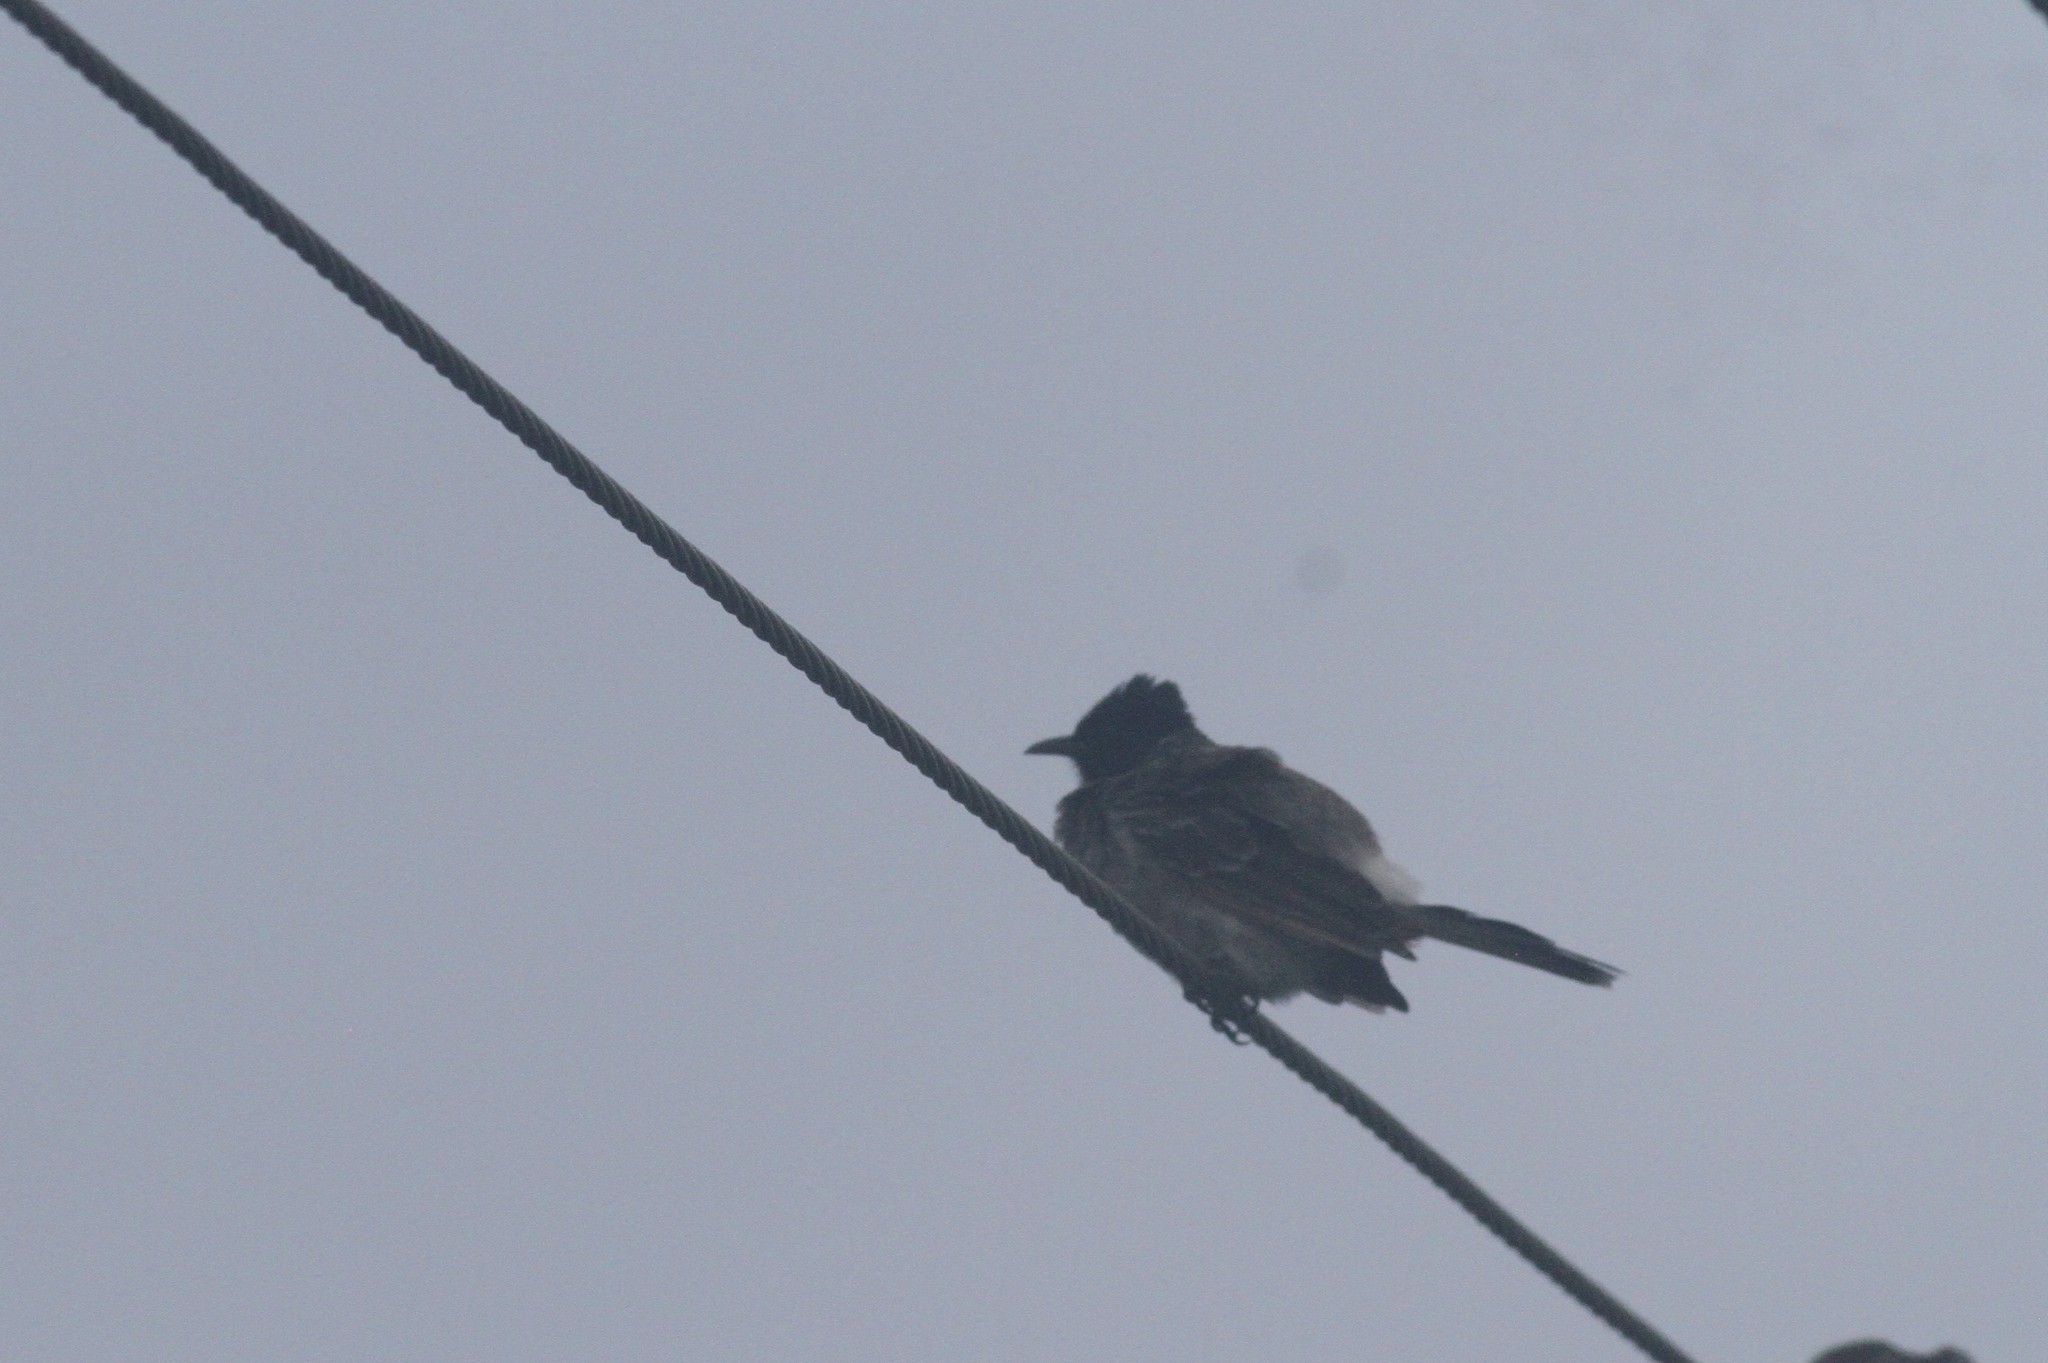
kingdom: Animalia
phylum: Chordata
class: Aves
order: Passeriformes
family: Pycnonotidae
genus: Pycnonotus
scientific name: Pycnonotus cafer
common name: Red-vented bulbul
